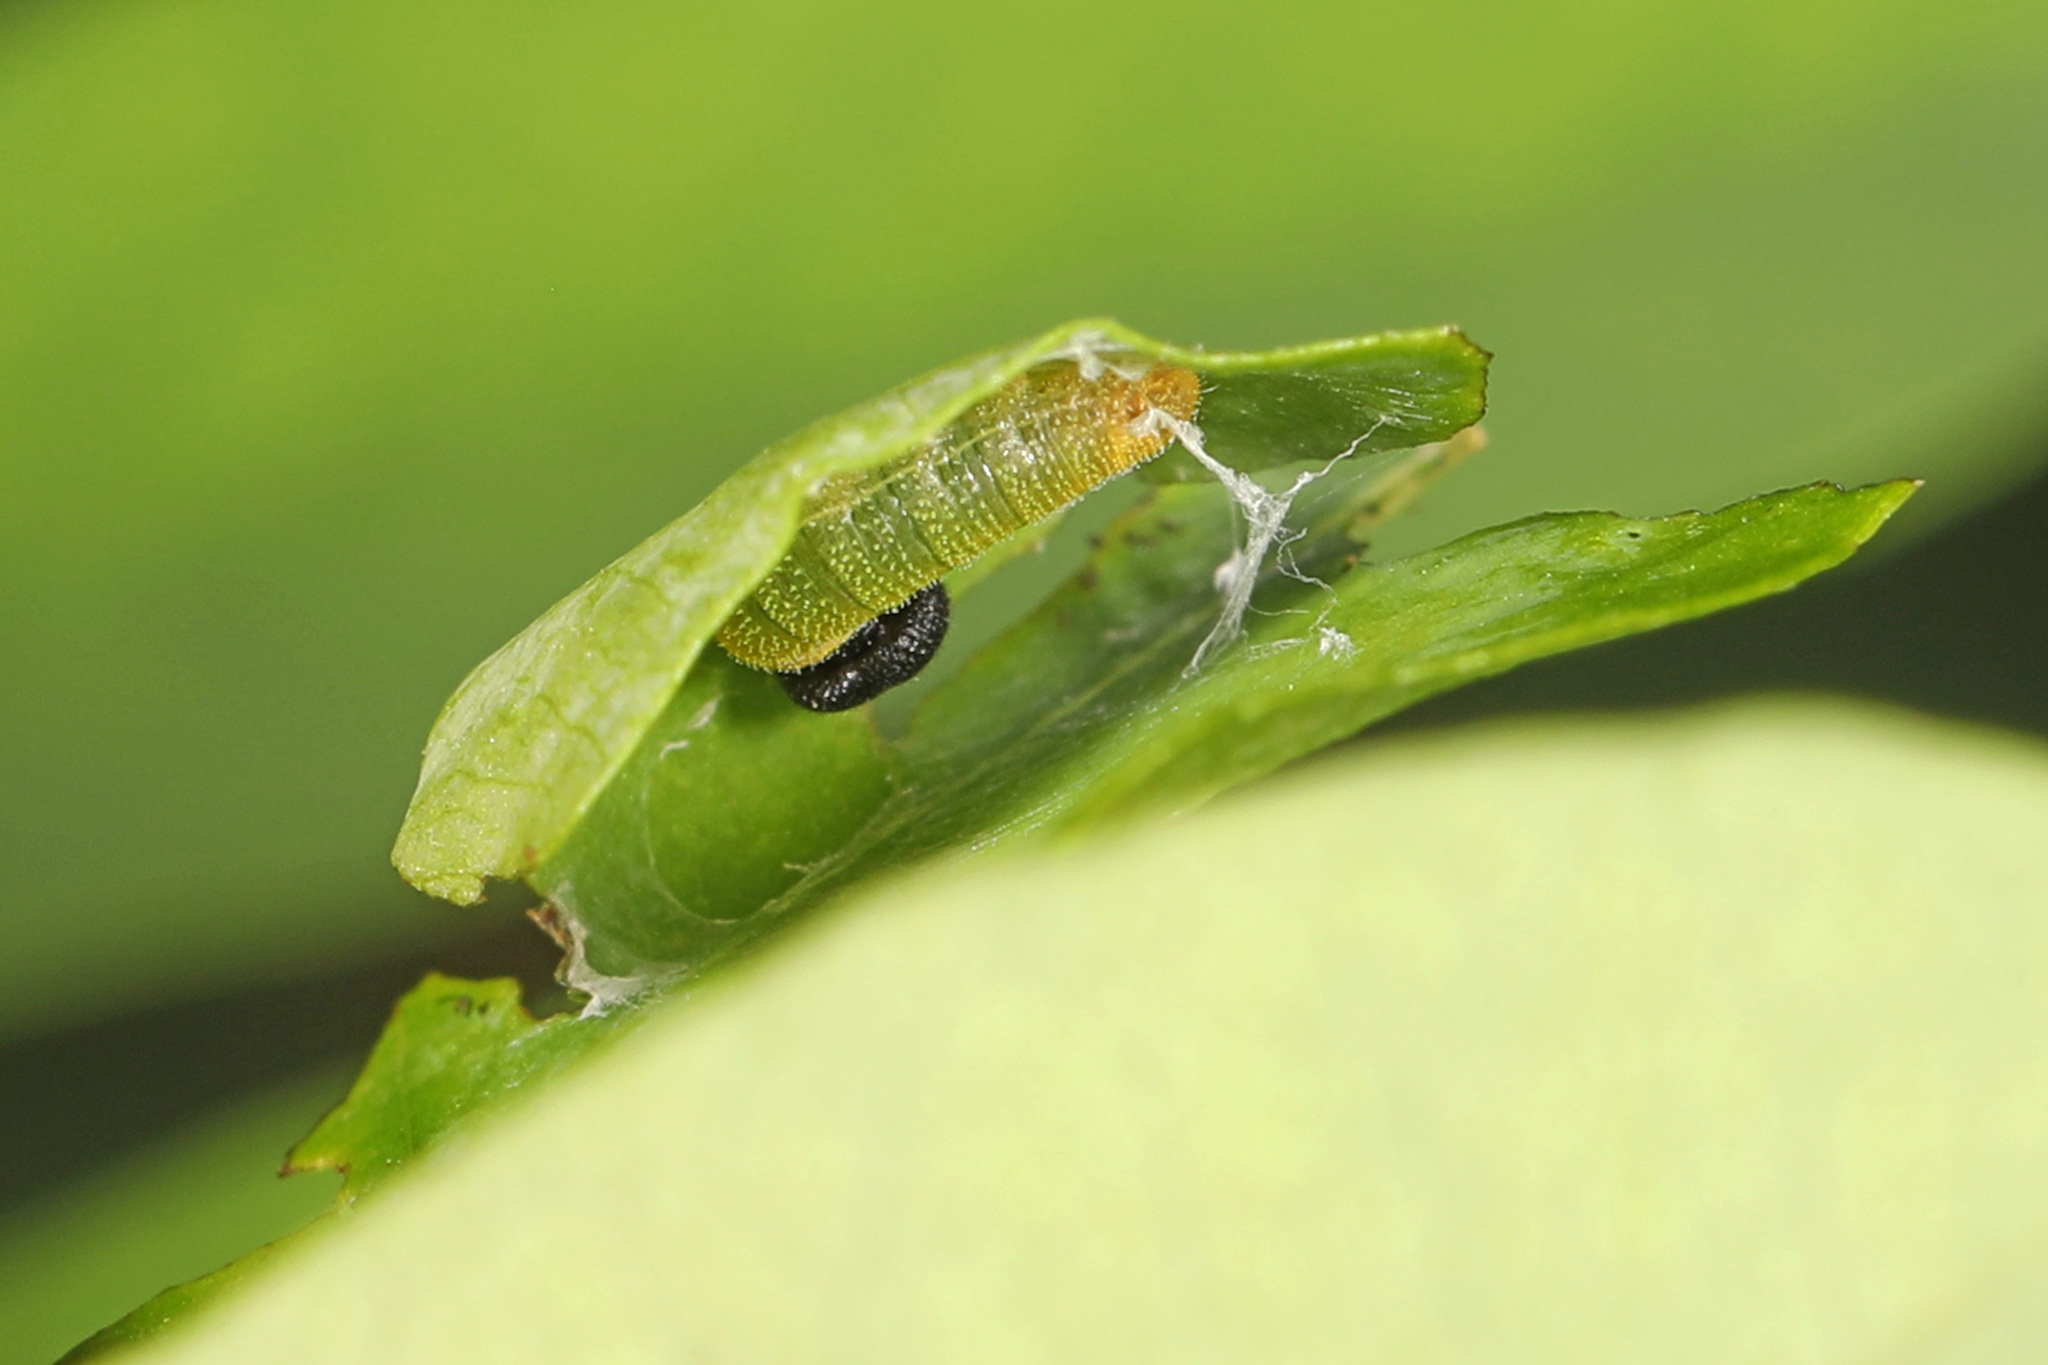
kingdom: Animalia
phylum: Arthropoda
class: Insecta
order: Lepidoptera
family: Hesperiidae
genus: Epargyreus
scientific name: Epargyreus clarus
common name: Silver-spotted skipper
